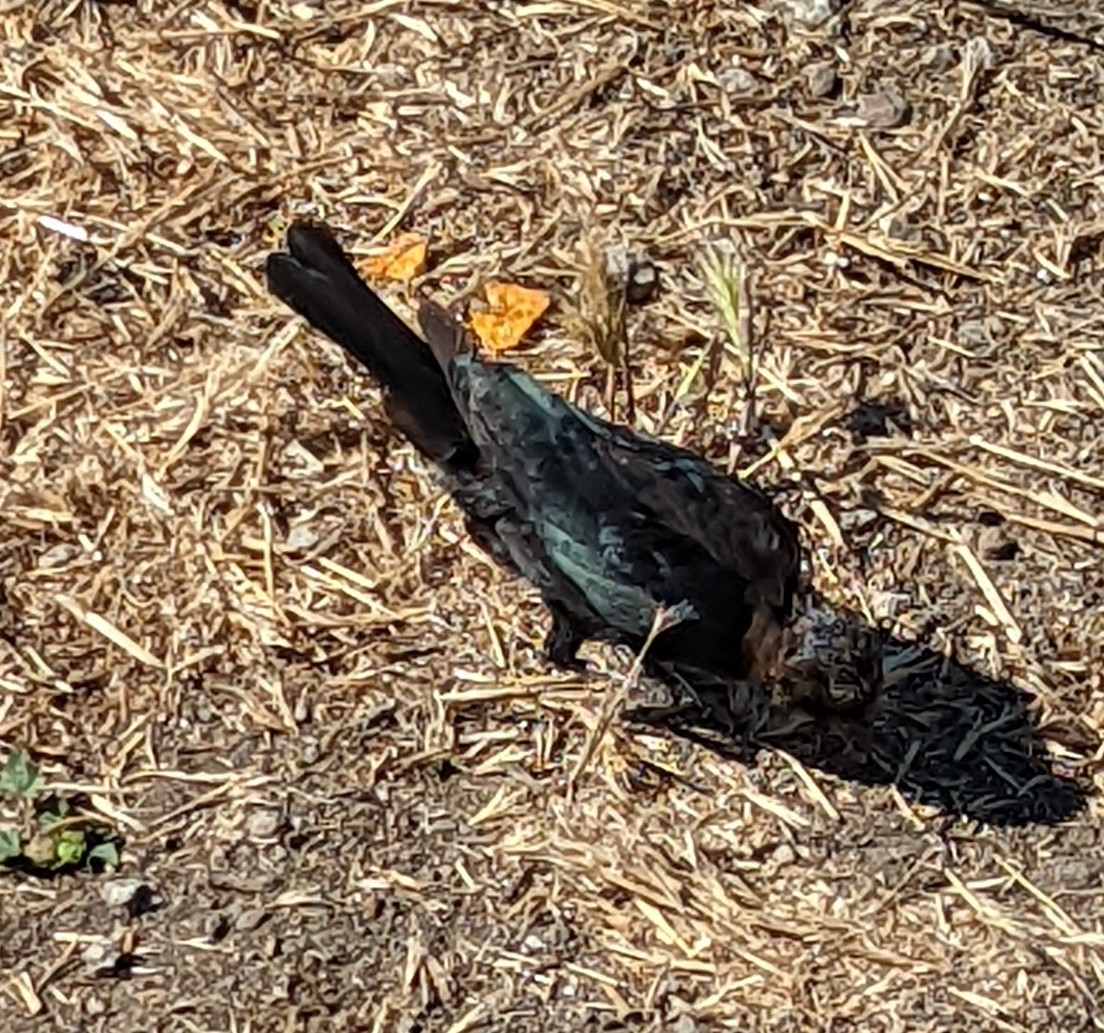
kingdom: Animalia
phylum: Chordata
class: Aves
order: Passeriformes
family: Icteridae
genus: Euphagus
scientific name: Euphagus cyanocephalus
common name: Brewer's blackbird
